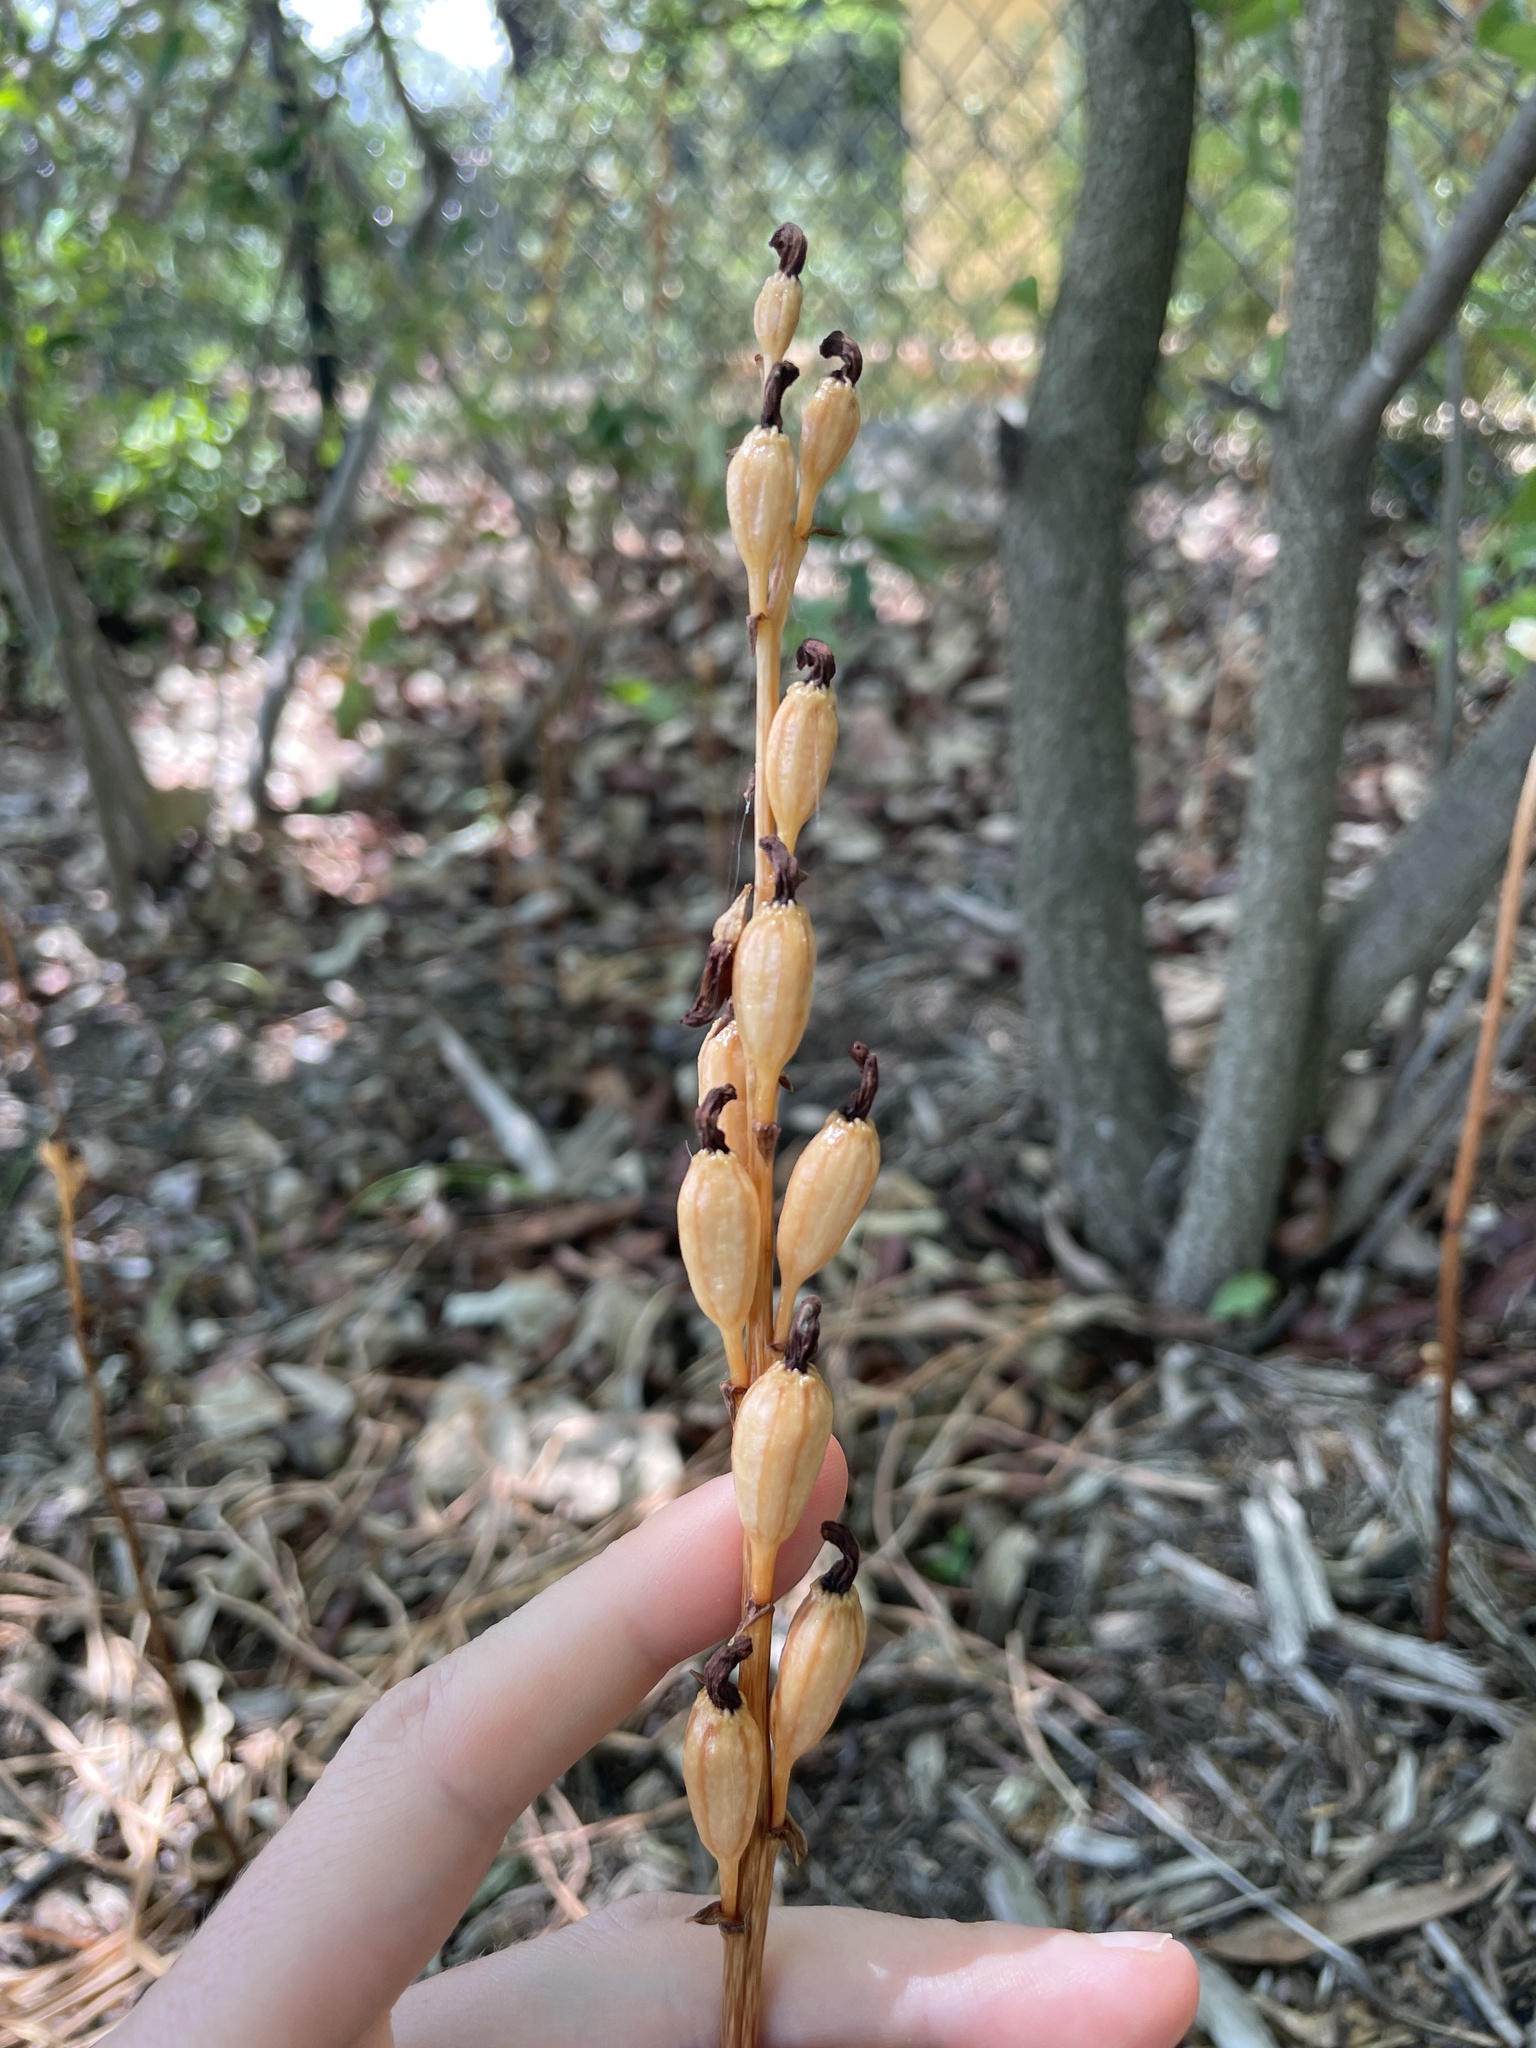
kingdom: Plantae
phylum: Tracheophyta
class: Liliopsida
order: Asparagales
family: Orchidaceae
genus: Gastrodia
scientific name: Gastrodia procera
